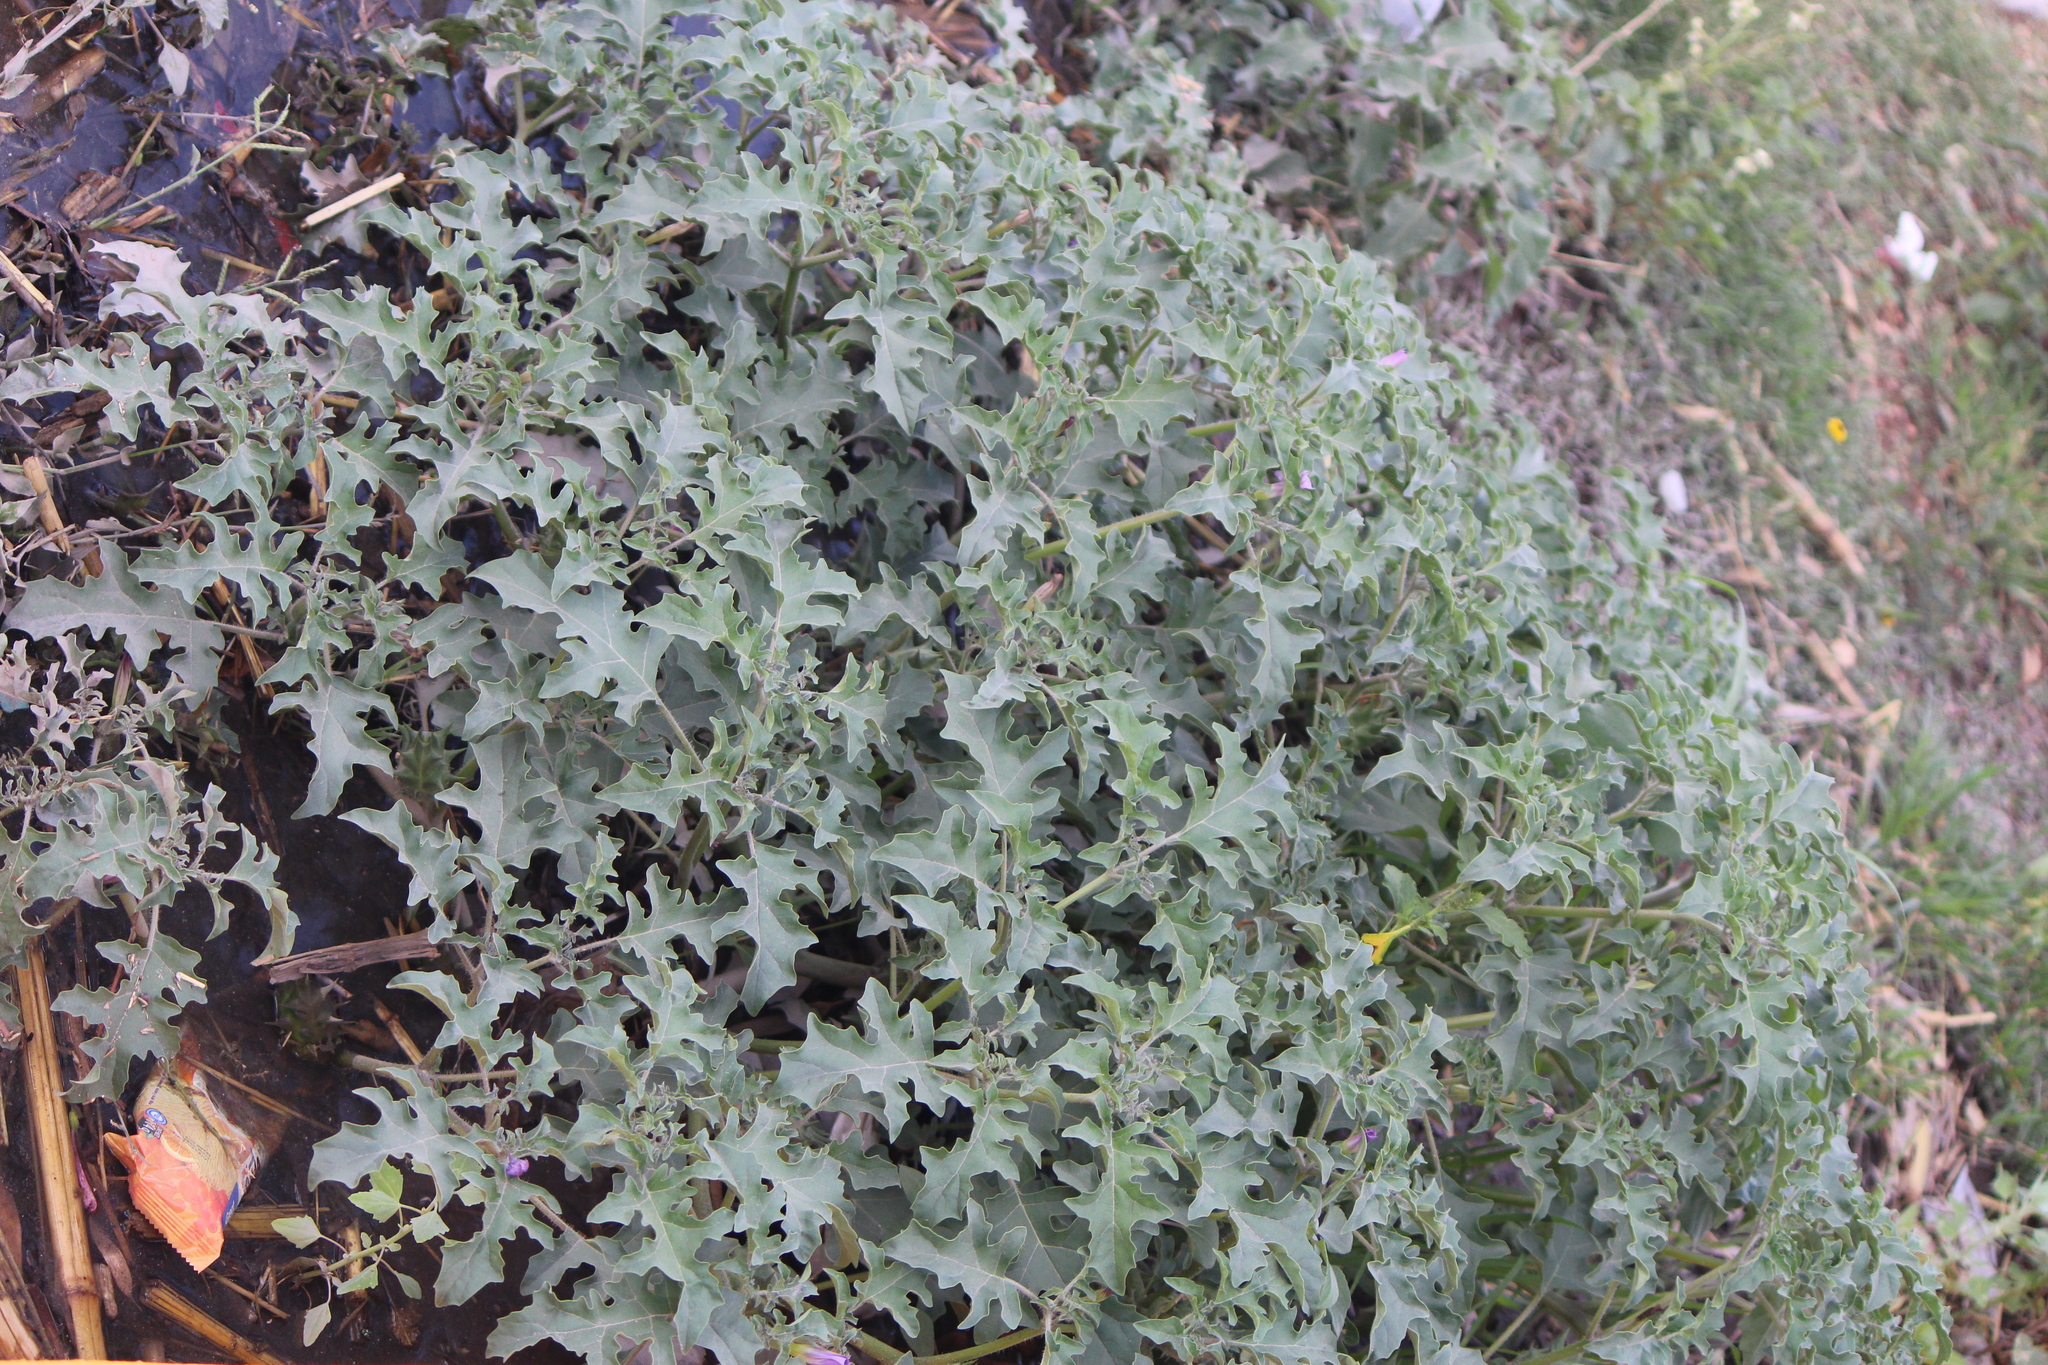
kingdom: Plantae
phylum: Tracheophyta
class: Magnoliopsida
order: Solanales
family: Solanaceae
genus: Datura
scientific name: Datura quercifolia
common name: Oak-leaf datura
